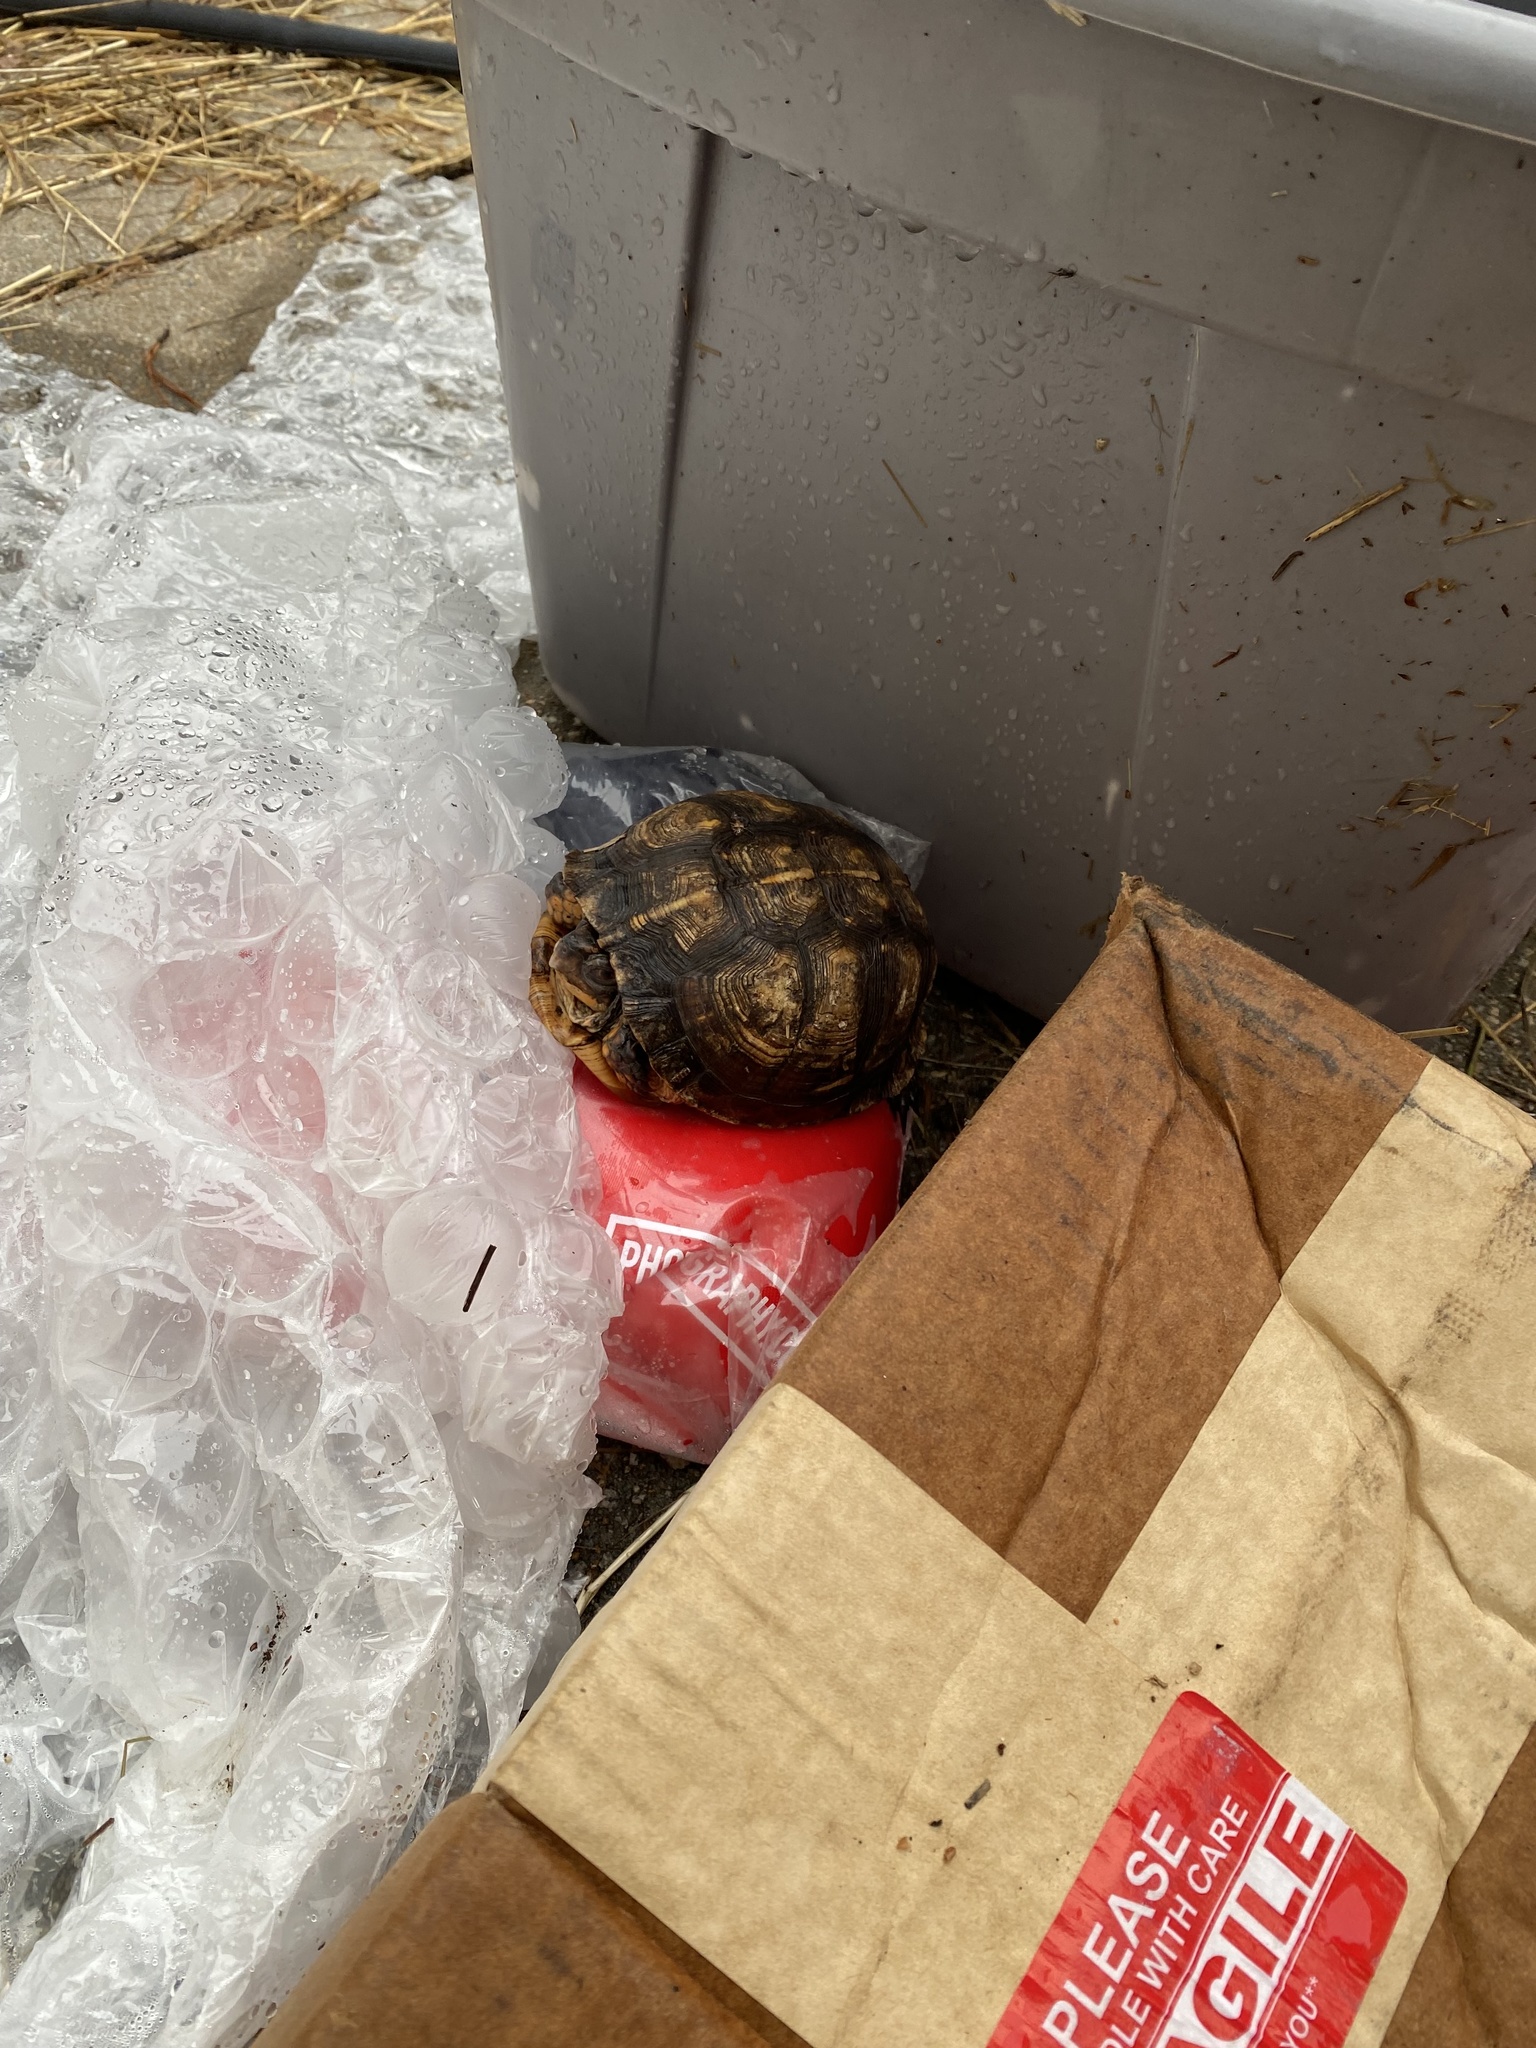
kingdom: Animalia
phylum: Chordata
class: Testudines
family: Emydidae
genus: Terrapene
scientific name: Terrapene carolina
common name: Common box turtle
